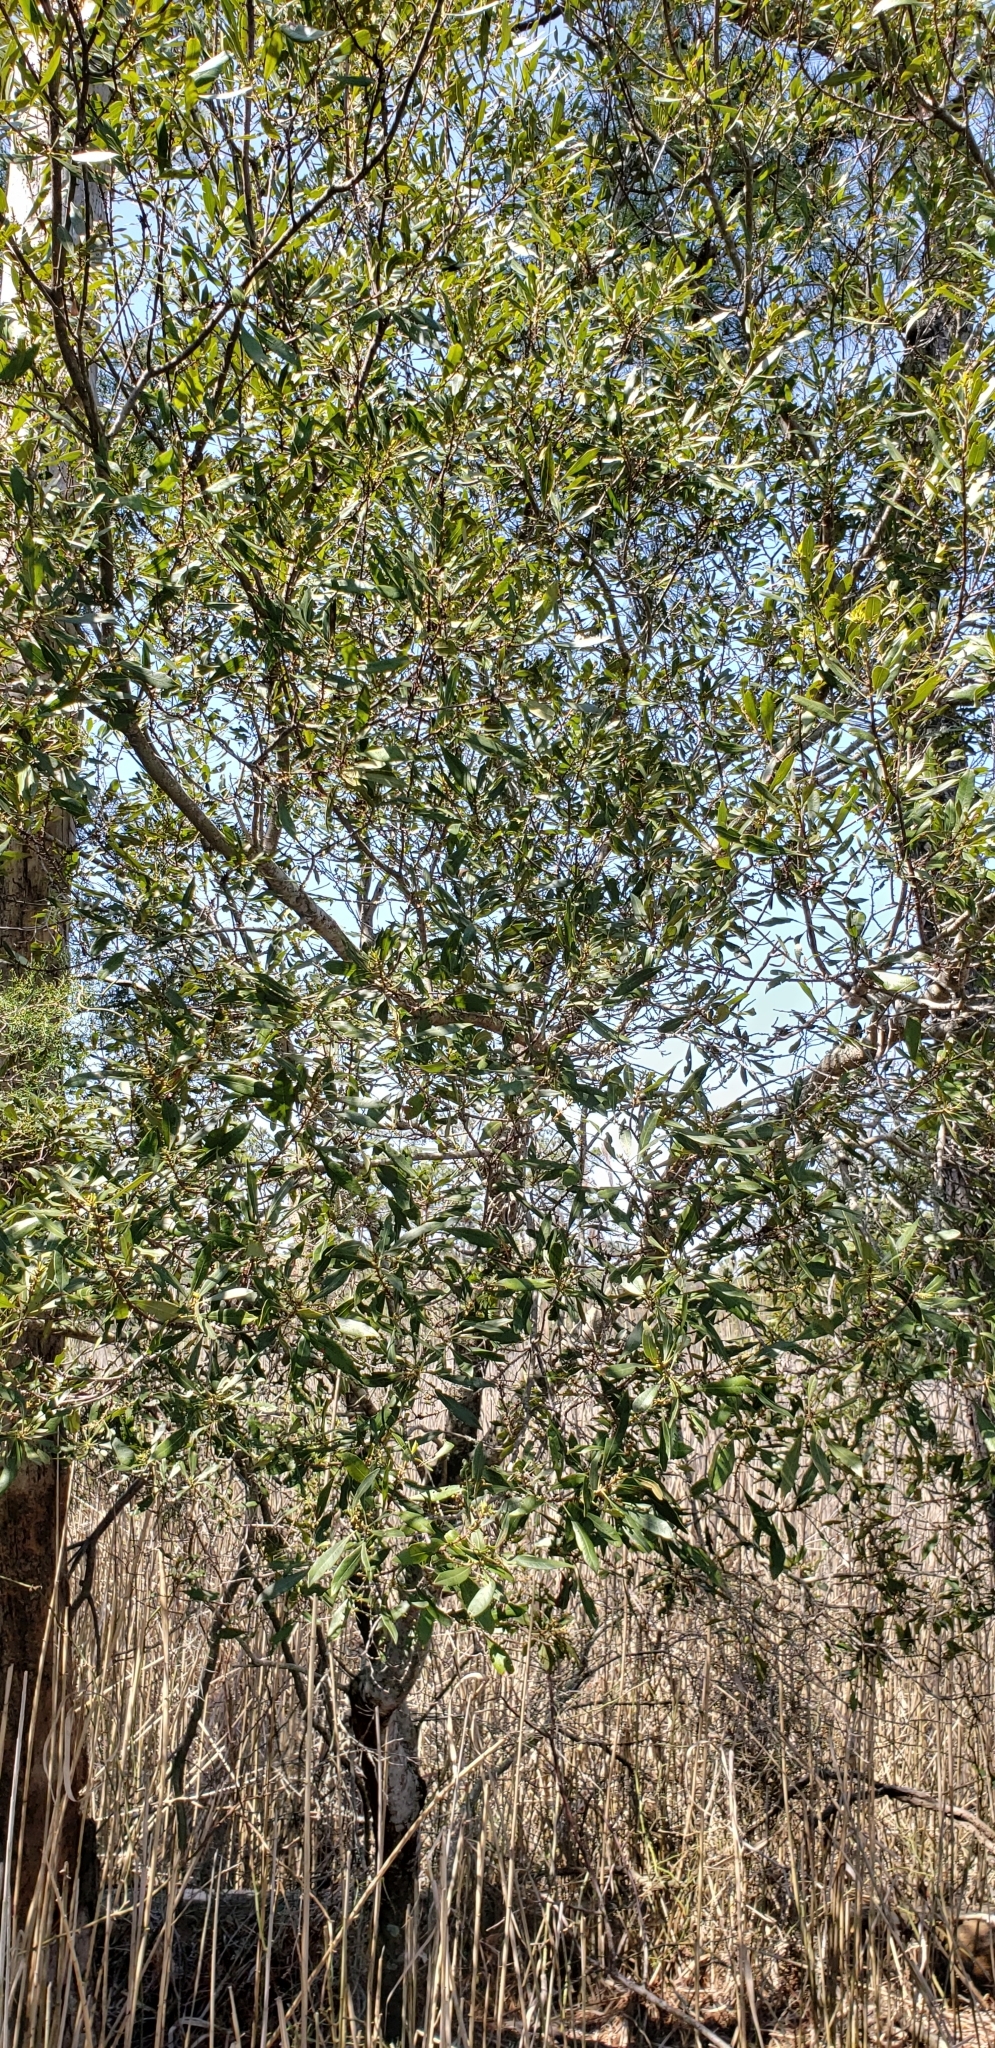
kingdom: Plantae
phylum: Tracheophyta
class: Magnoliopsida
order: Fagales
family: Myricaceae
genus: Morella
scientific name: Morella cerifera
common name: Wax myrtle
